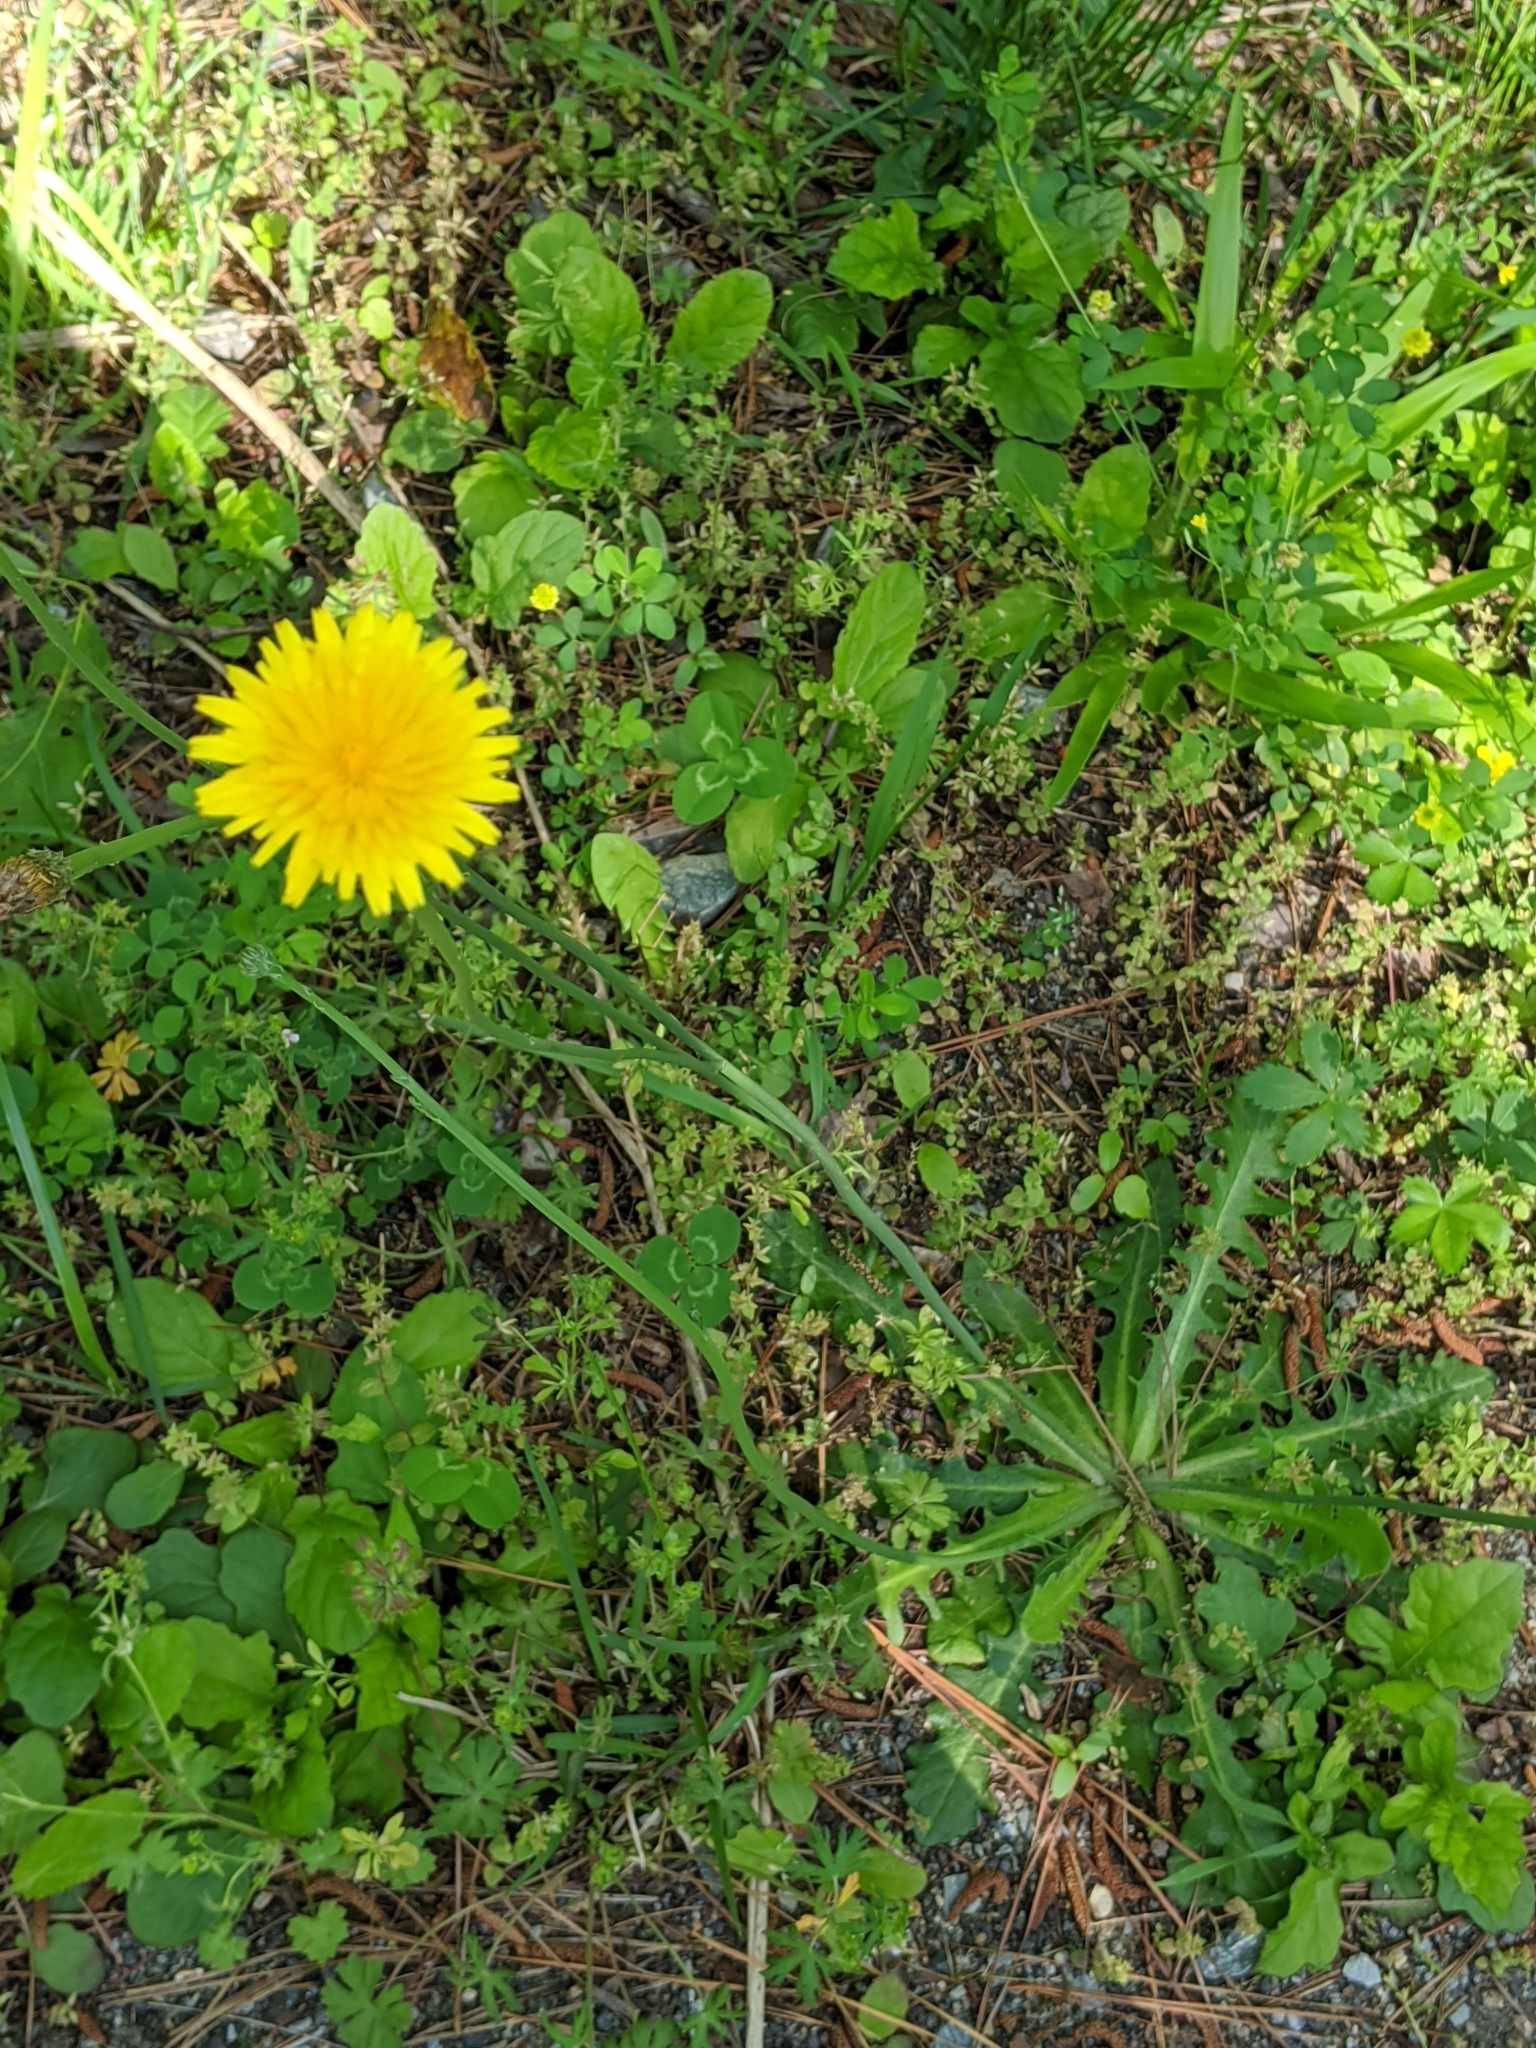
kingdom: Plantae
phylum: Tracheophyta
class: Magnoliopsida
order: Asterales
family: Asteraceae
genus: Hypochaeris
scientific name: Hypochaeris radicata
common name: Flatweed
